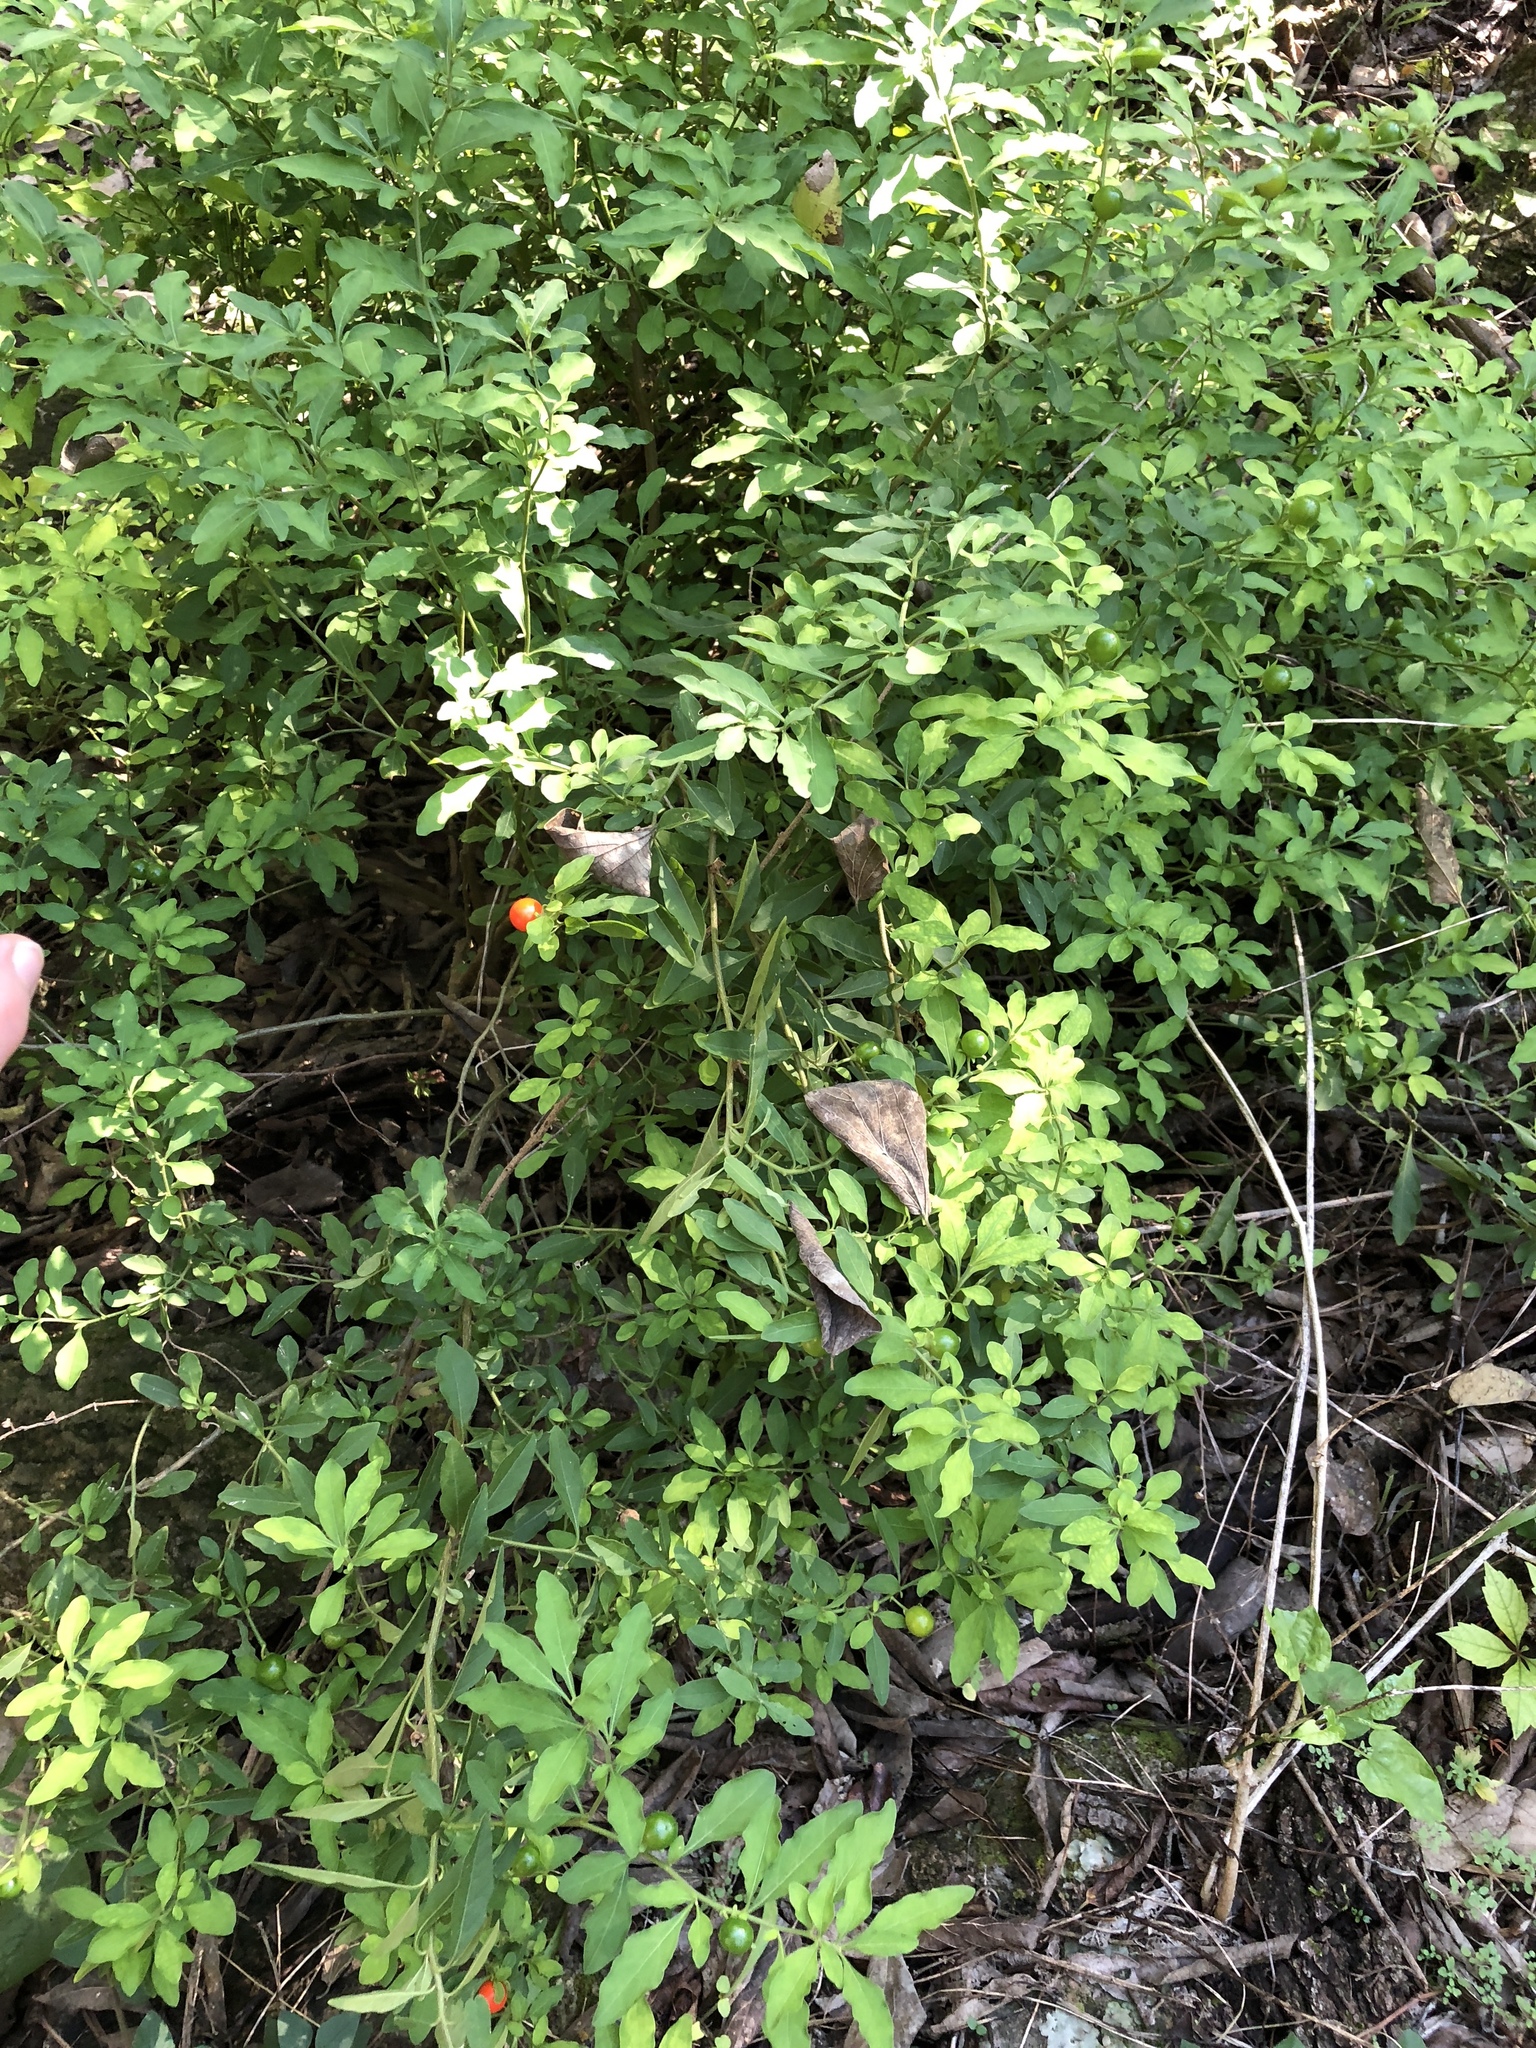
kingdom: Plantae
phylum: Tracheophyta
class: Magnoliopsida
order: Solanales
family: Solanaceae
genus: Solanum
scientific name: Solanum pseudocapsicum
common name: Jerusalem cherry
